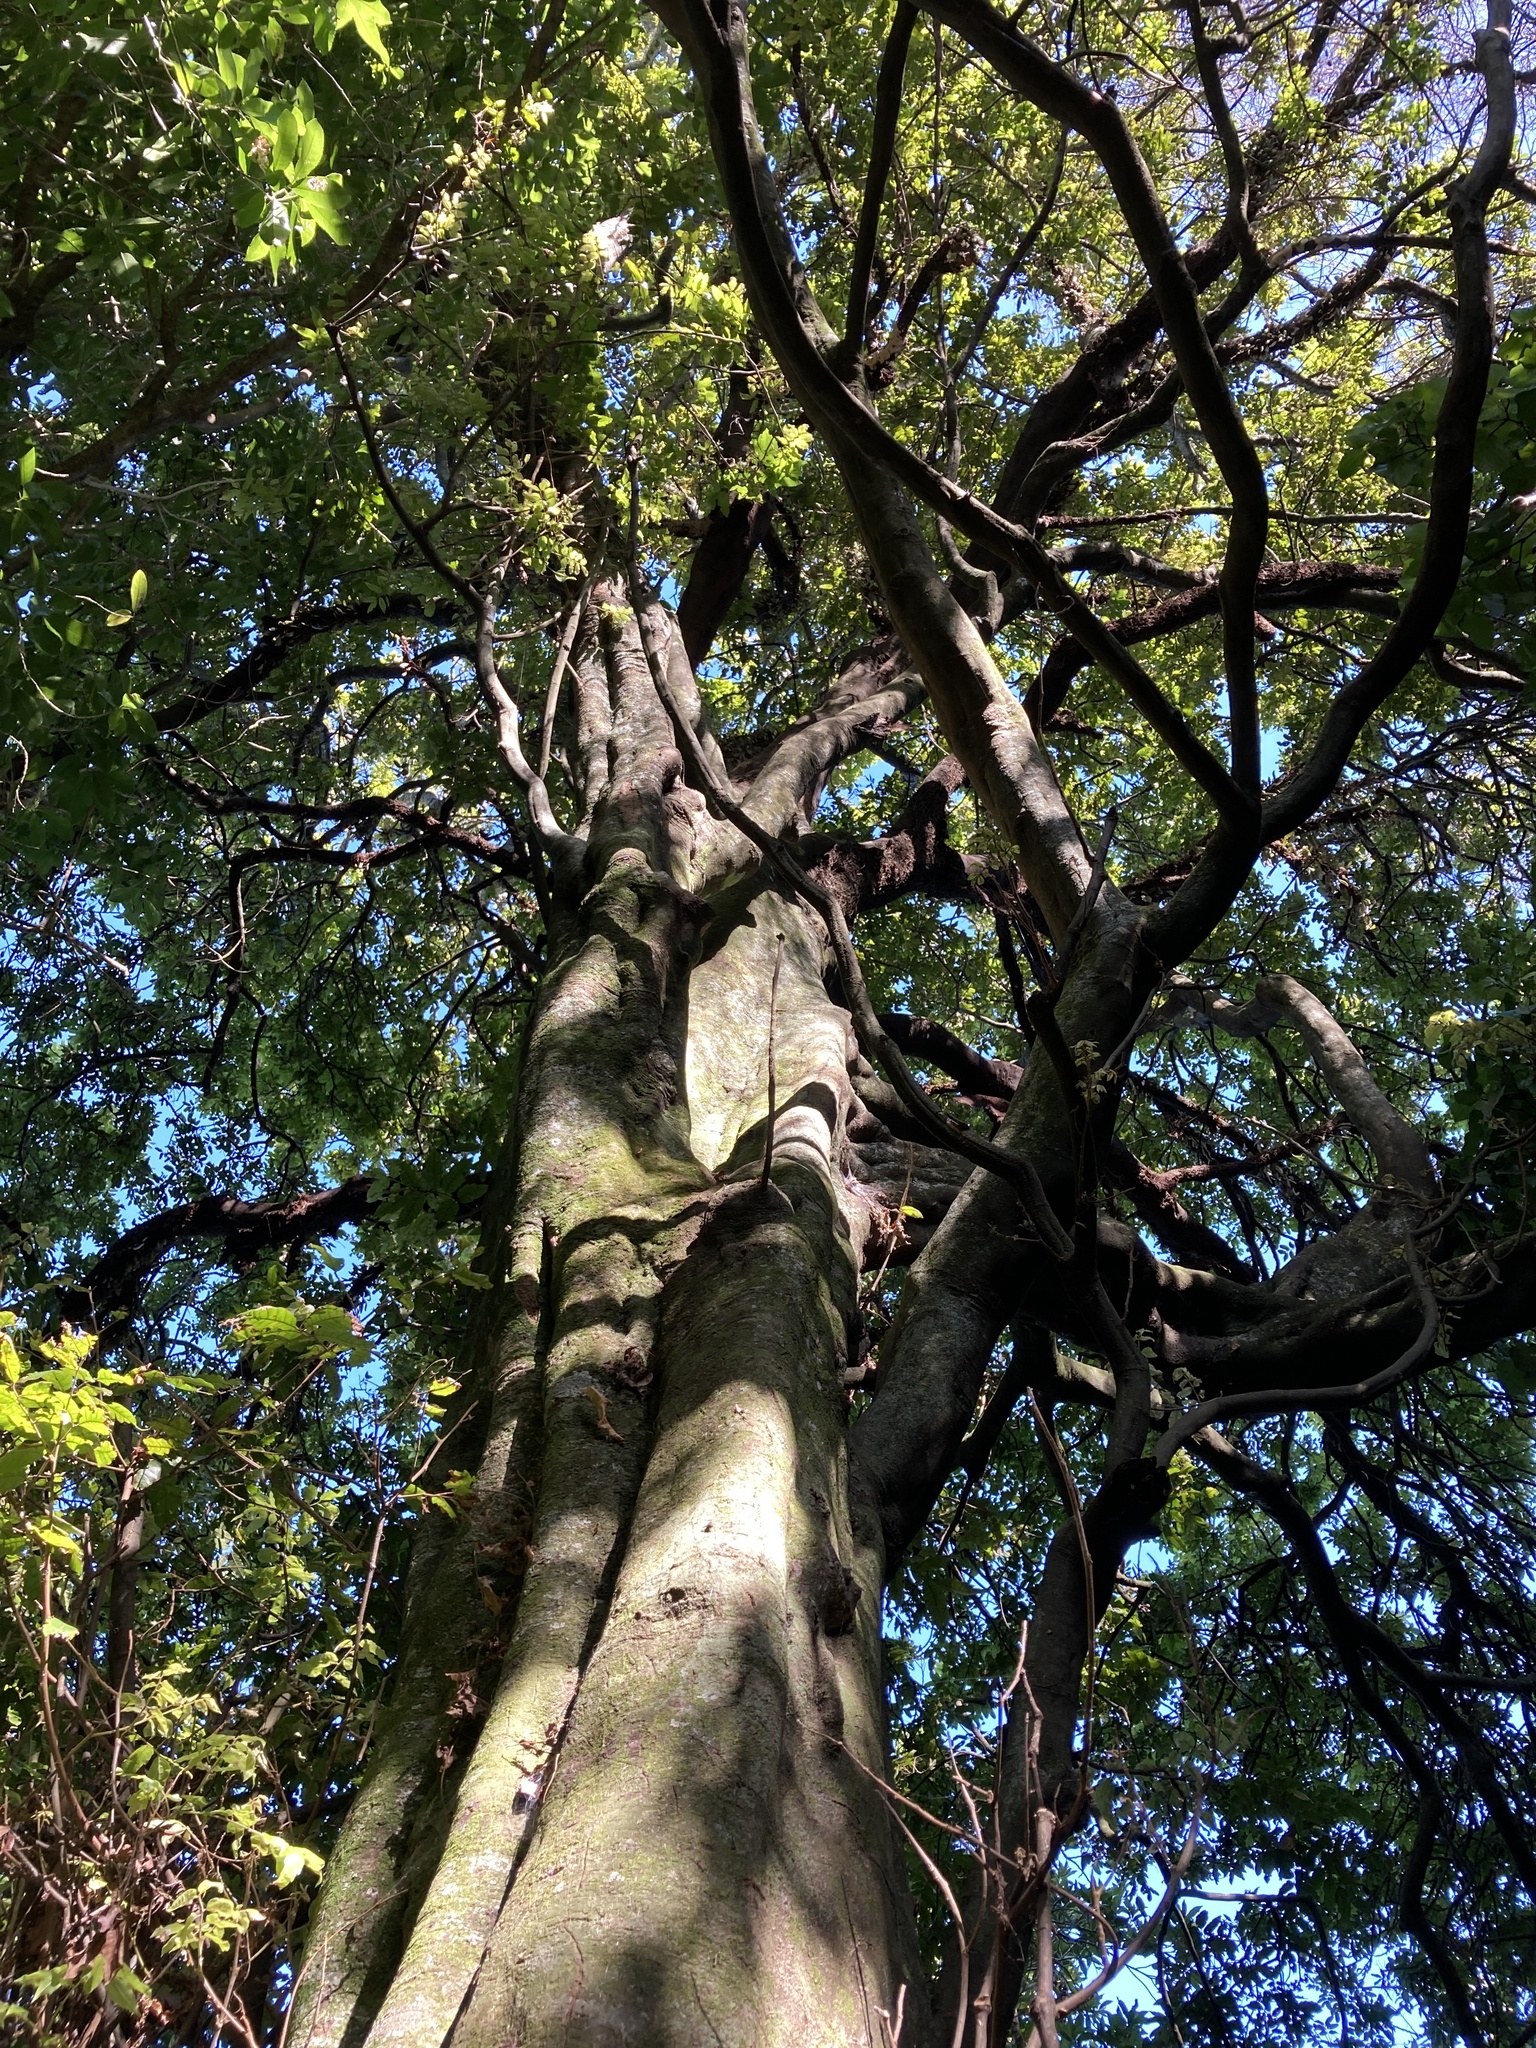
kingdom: Plantae
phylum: Tracheophyta
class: Magnoliopsida
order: Sapindales
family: Sapindaceae
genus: Alectryon
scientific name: Alectryon excelsus
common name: Three kings titoki
